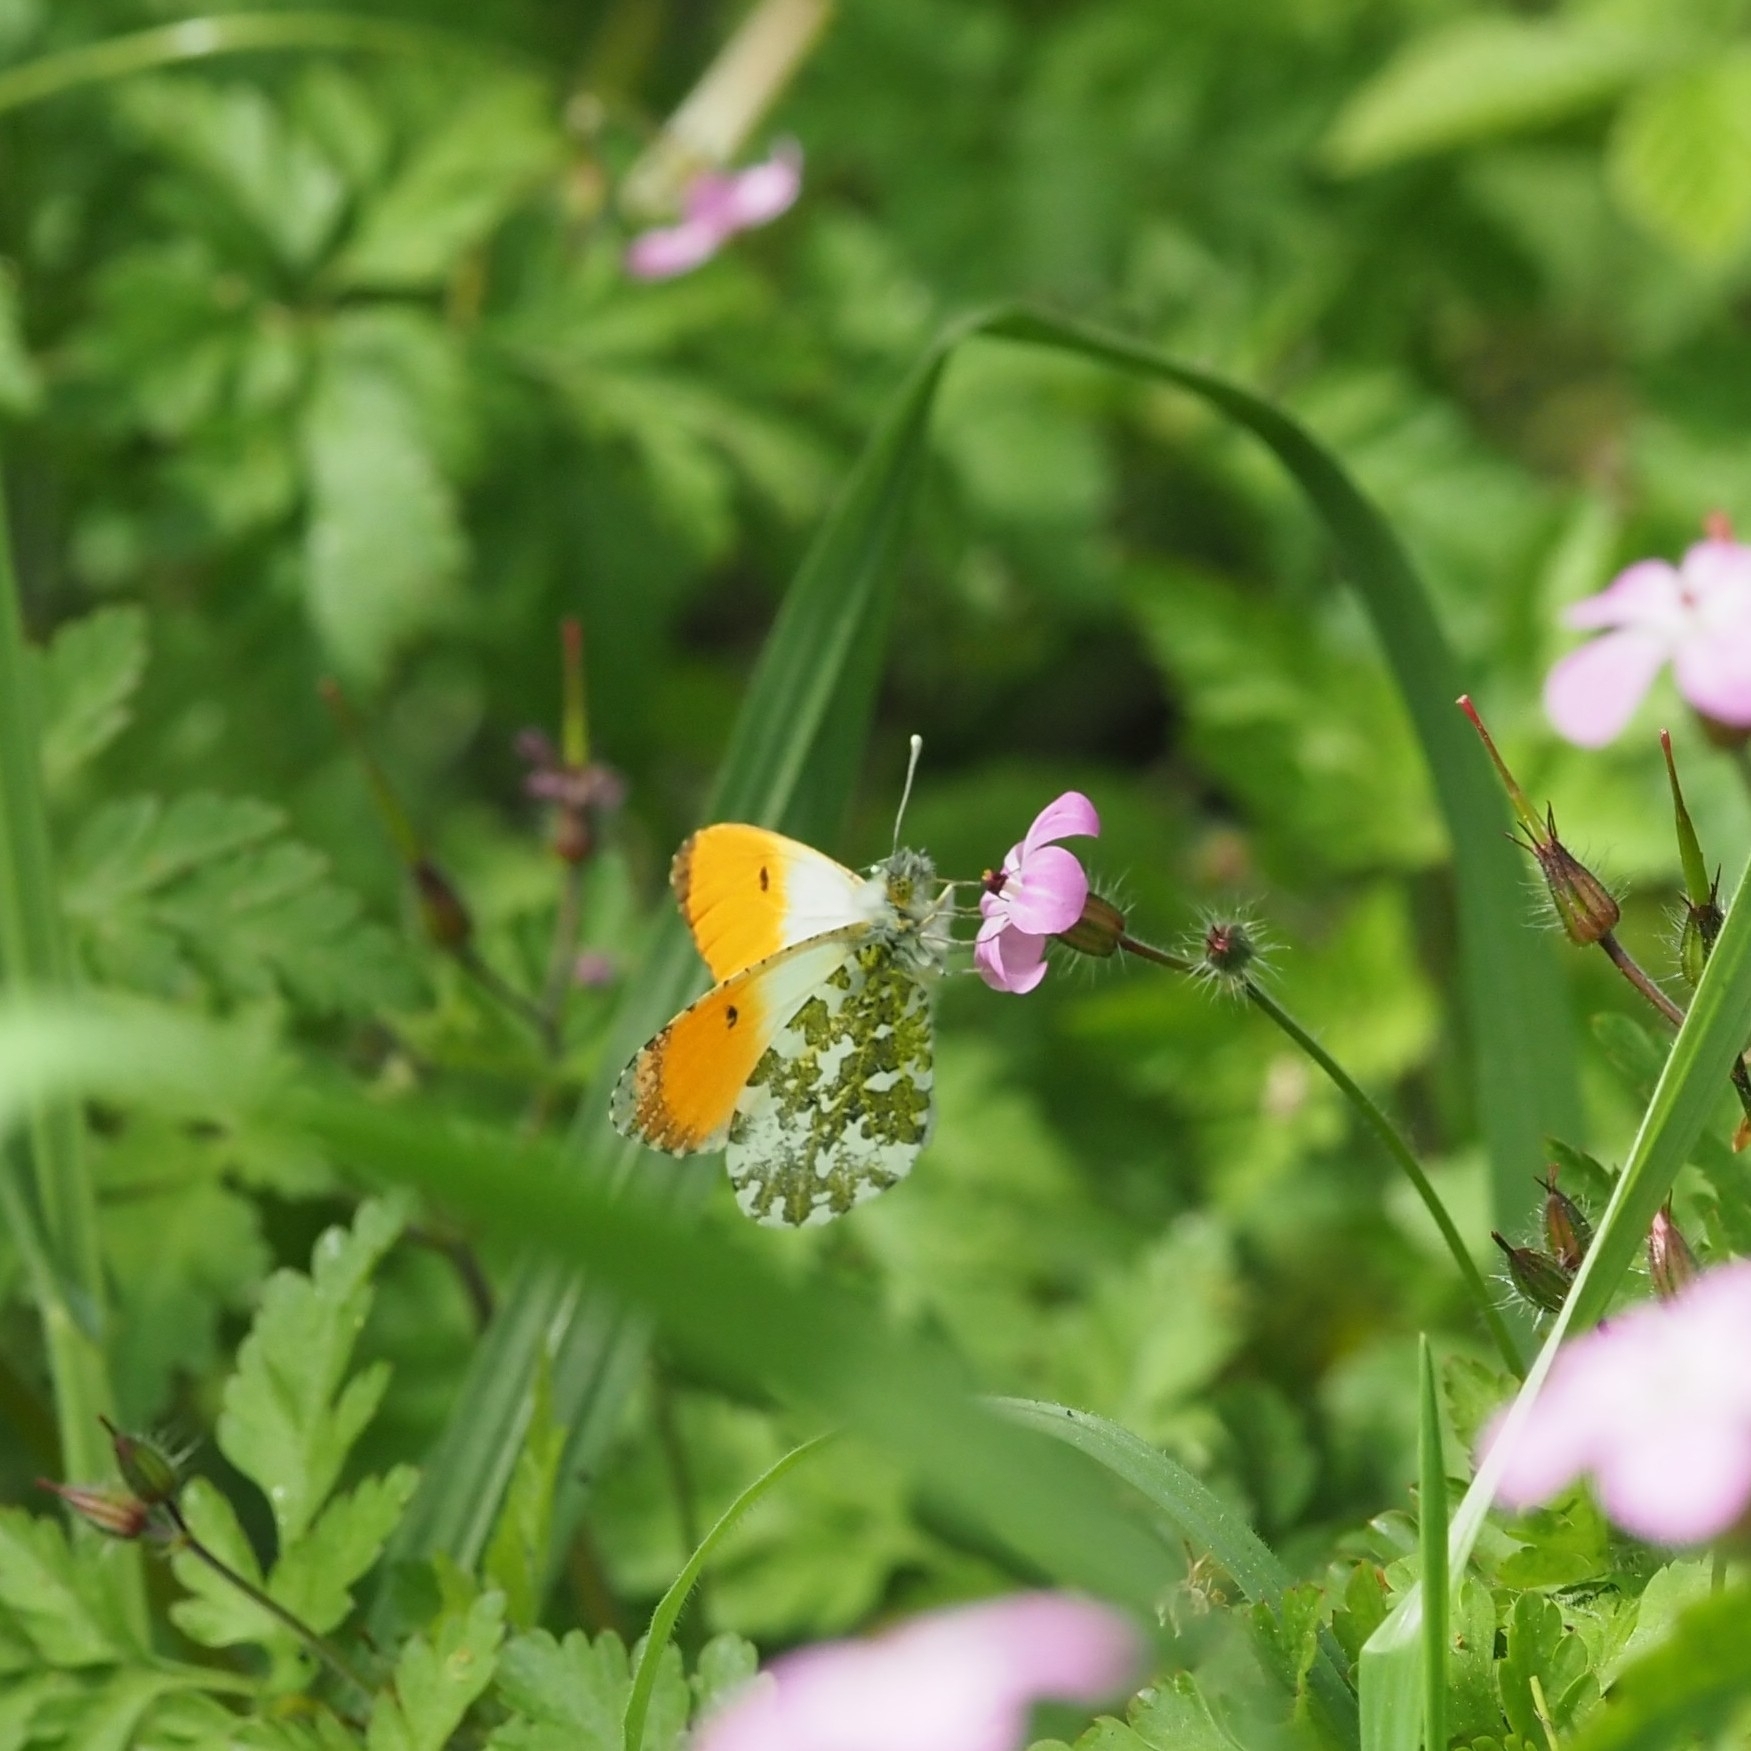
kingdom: Animalia
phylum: Arthropoda
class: Insecta
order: Lepidoptera
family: Pieridae
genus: Anthocharis
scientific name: Anthocharis cardamines
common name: Orange-tip
